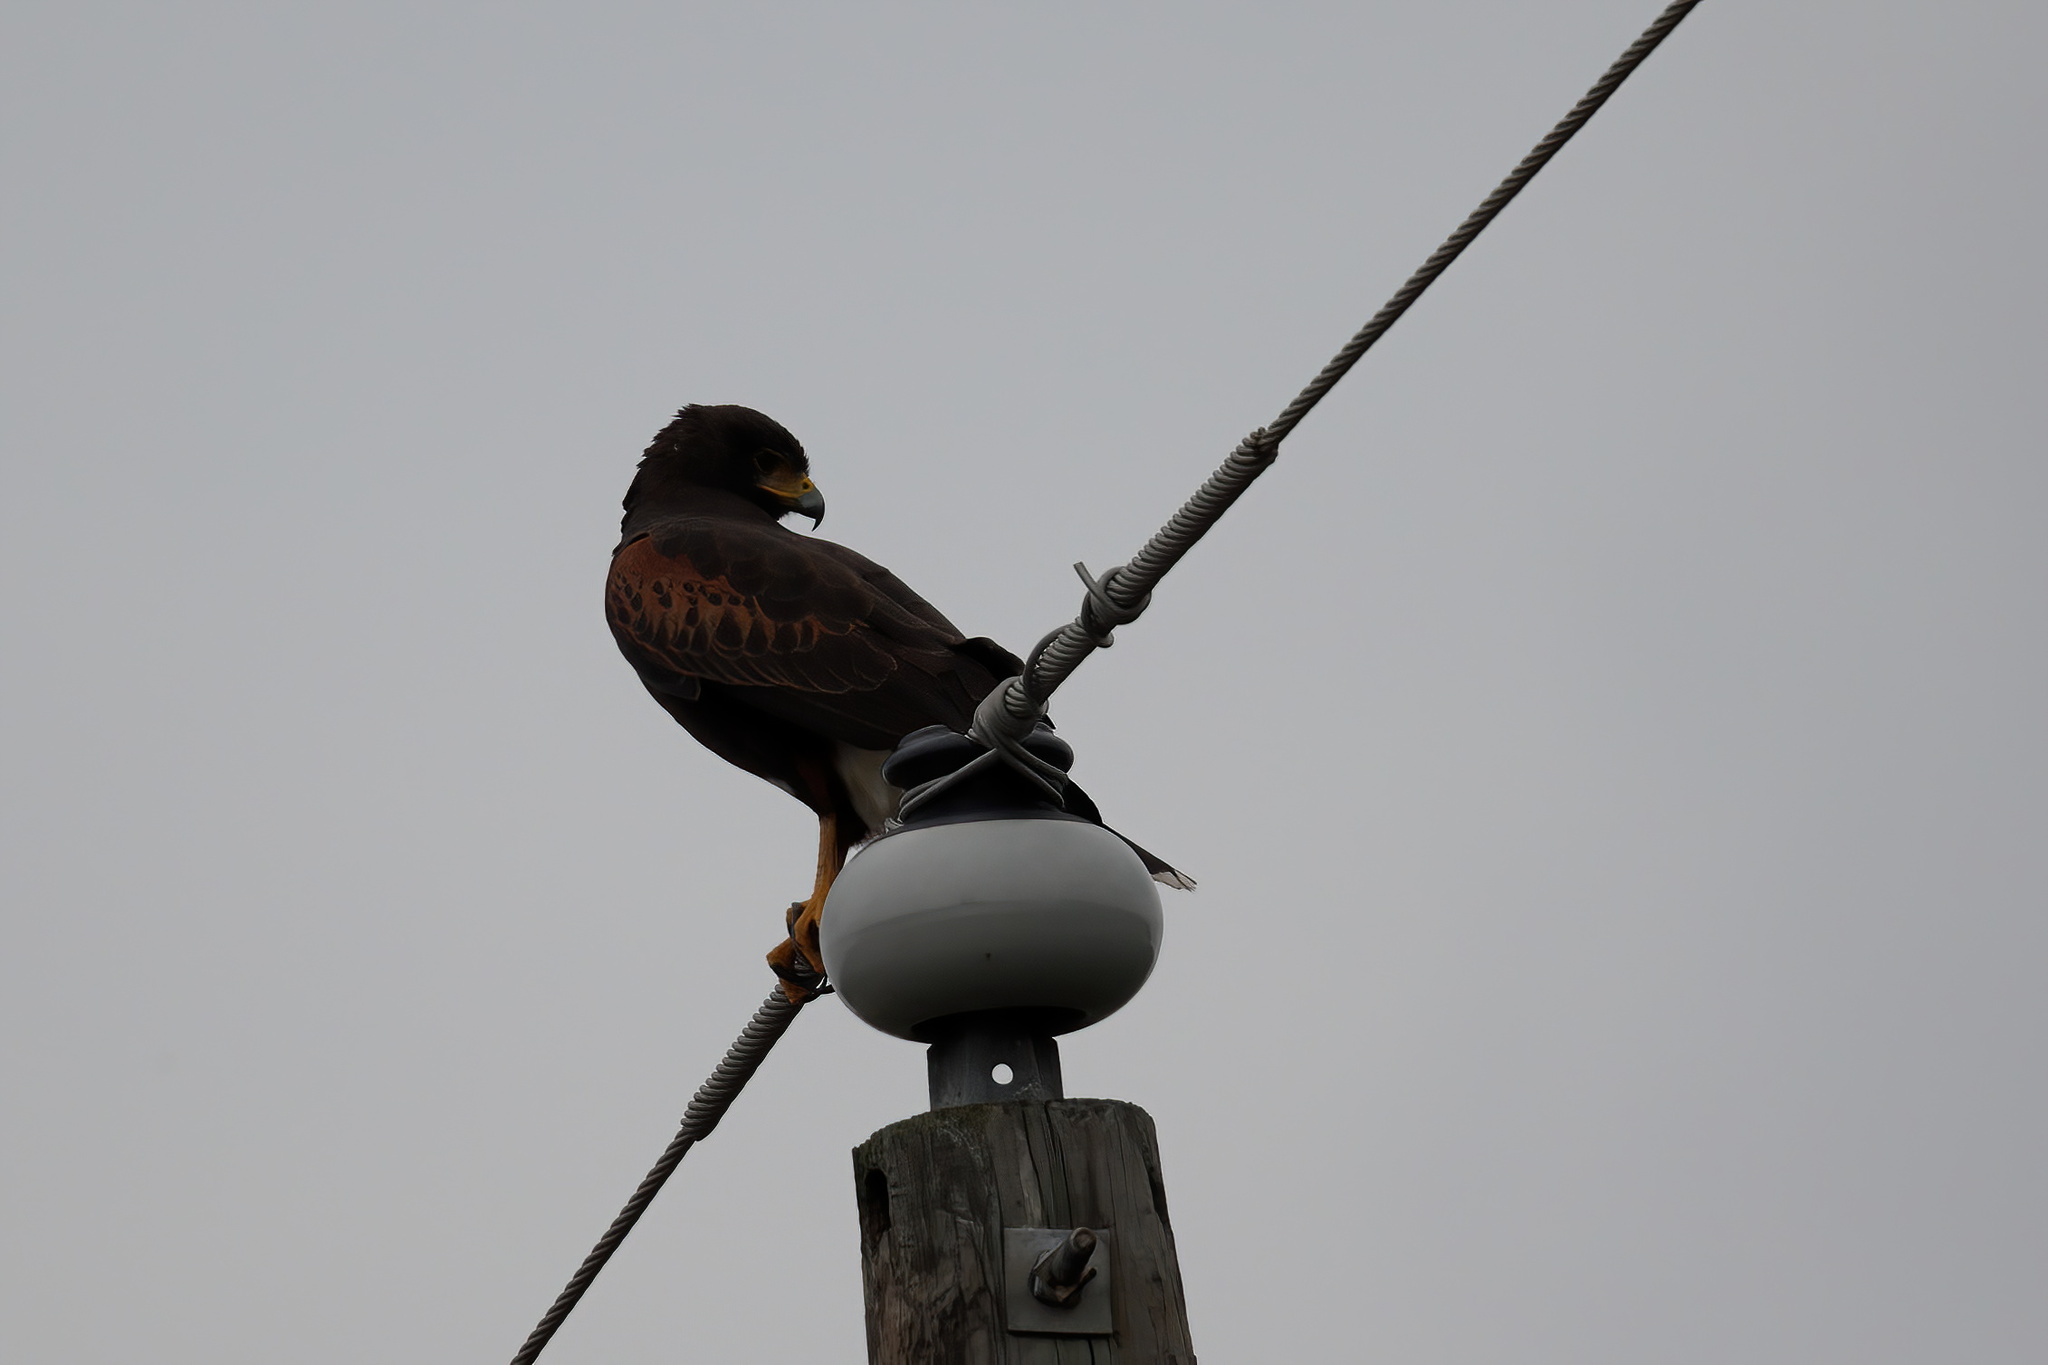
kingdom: Animalia
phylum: Chordata
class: Aves
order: Accipitriformes
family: Accipitridae
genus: Parabuteo
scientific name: Parabuteo unicinctus
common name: Harris's hawk
